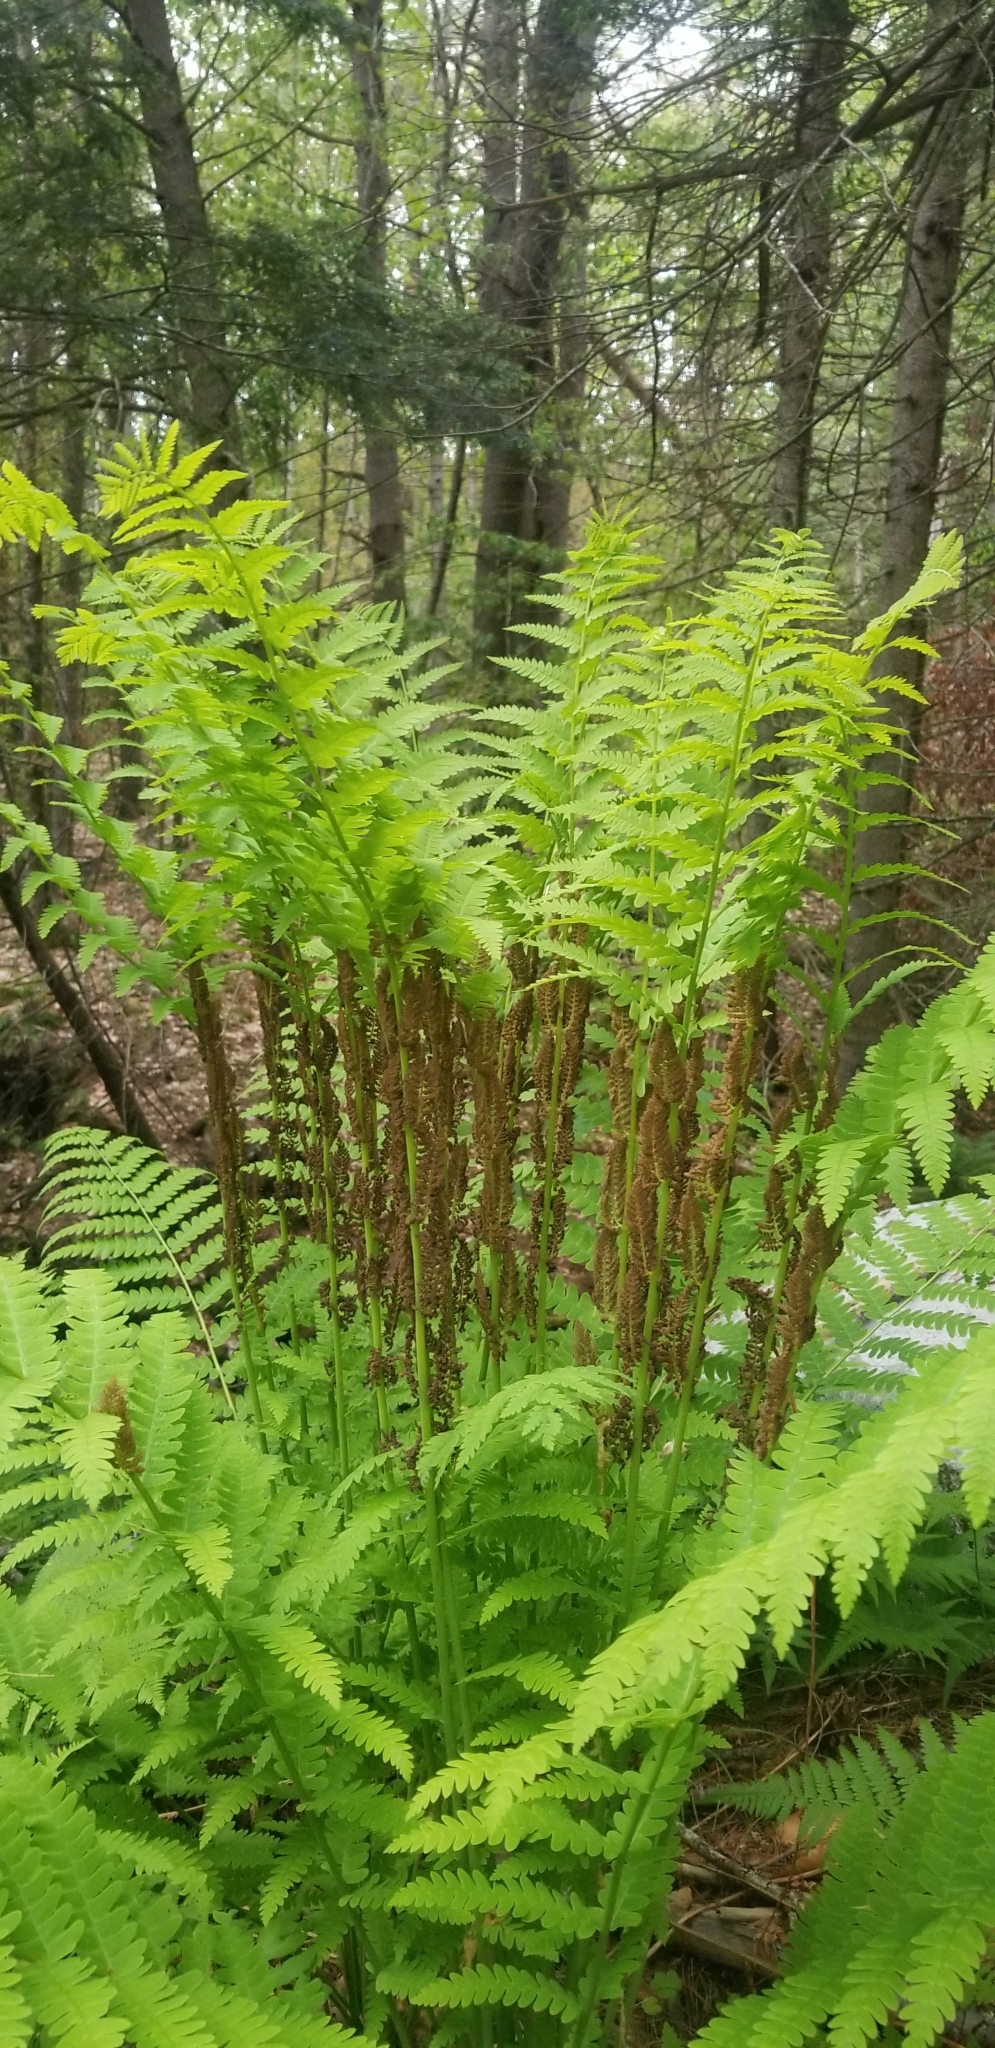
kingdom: Plantae
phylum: Tracheophyta
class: Polypodiopsida
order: Osmundales
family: Osmundaceae
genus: Claytosmunda
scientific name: Claytosmunda claytoniana
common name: Clayton's fern
